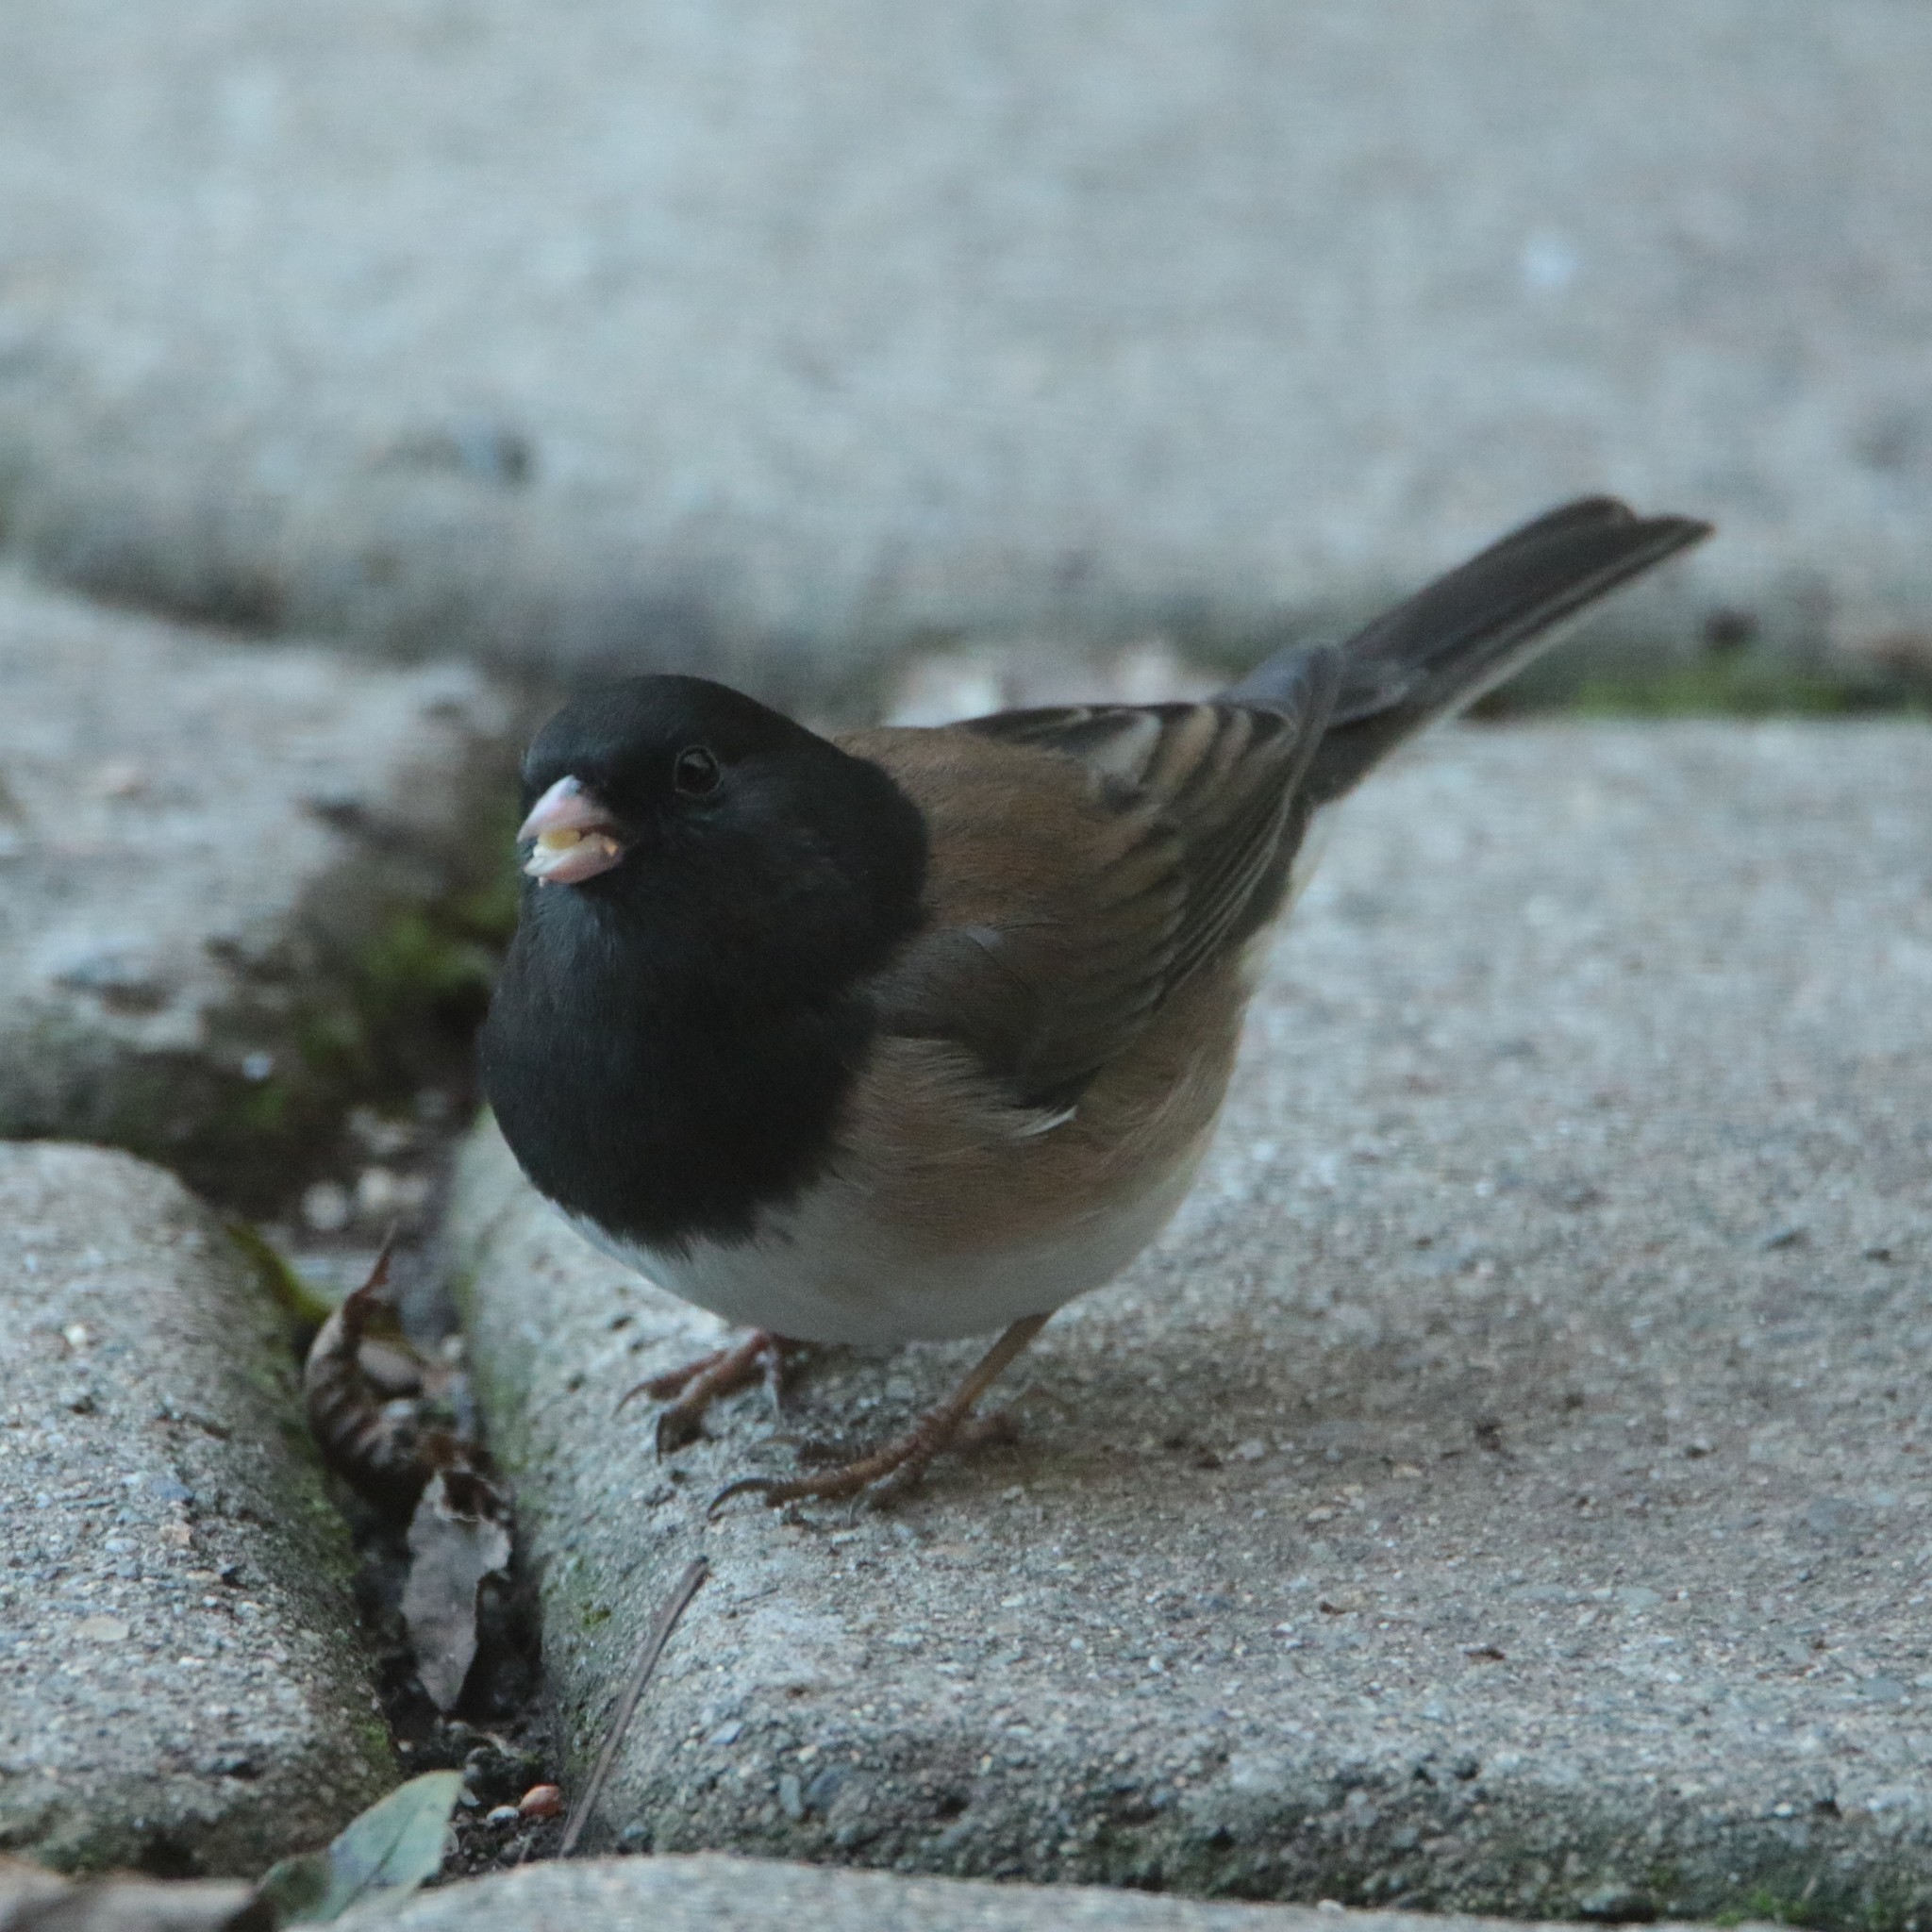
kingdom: Animalia
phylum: Chordata
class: Aves
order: Passeriformes
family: Passerellidae
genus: Junco
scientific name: Junco hyemalis
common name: Dark-eyed junco
